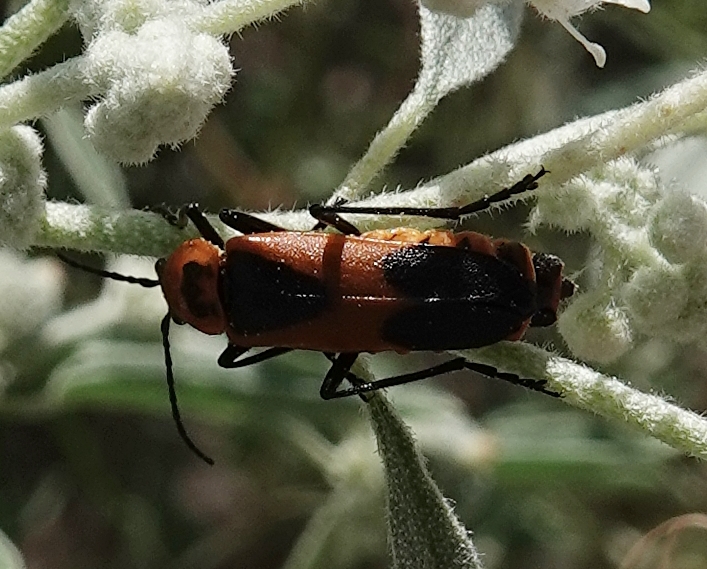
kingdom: Animalia
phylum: Arthropoda
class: Insecta
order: Coleoptera
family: Cantharidae
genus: Chauliognathus
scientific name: Chauliognathus basalis
